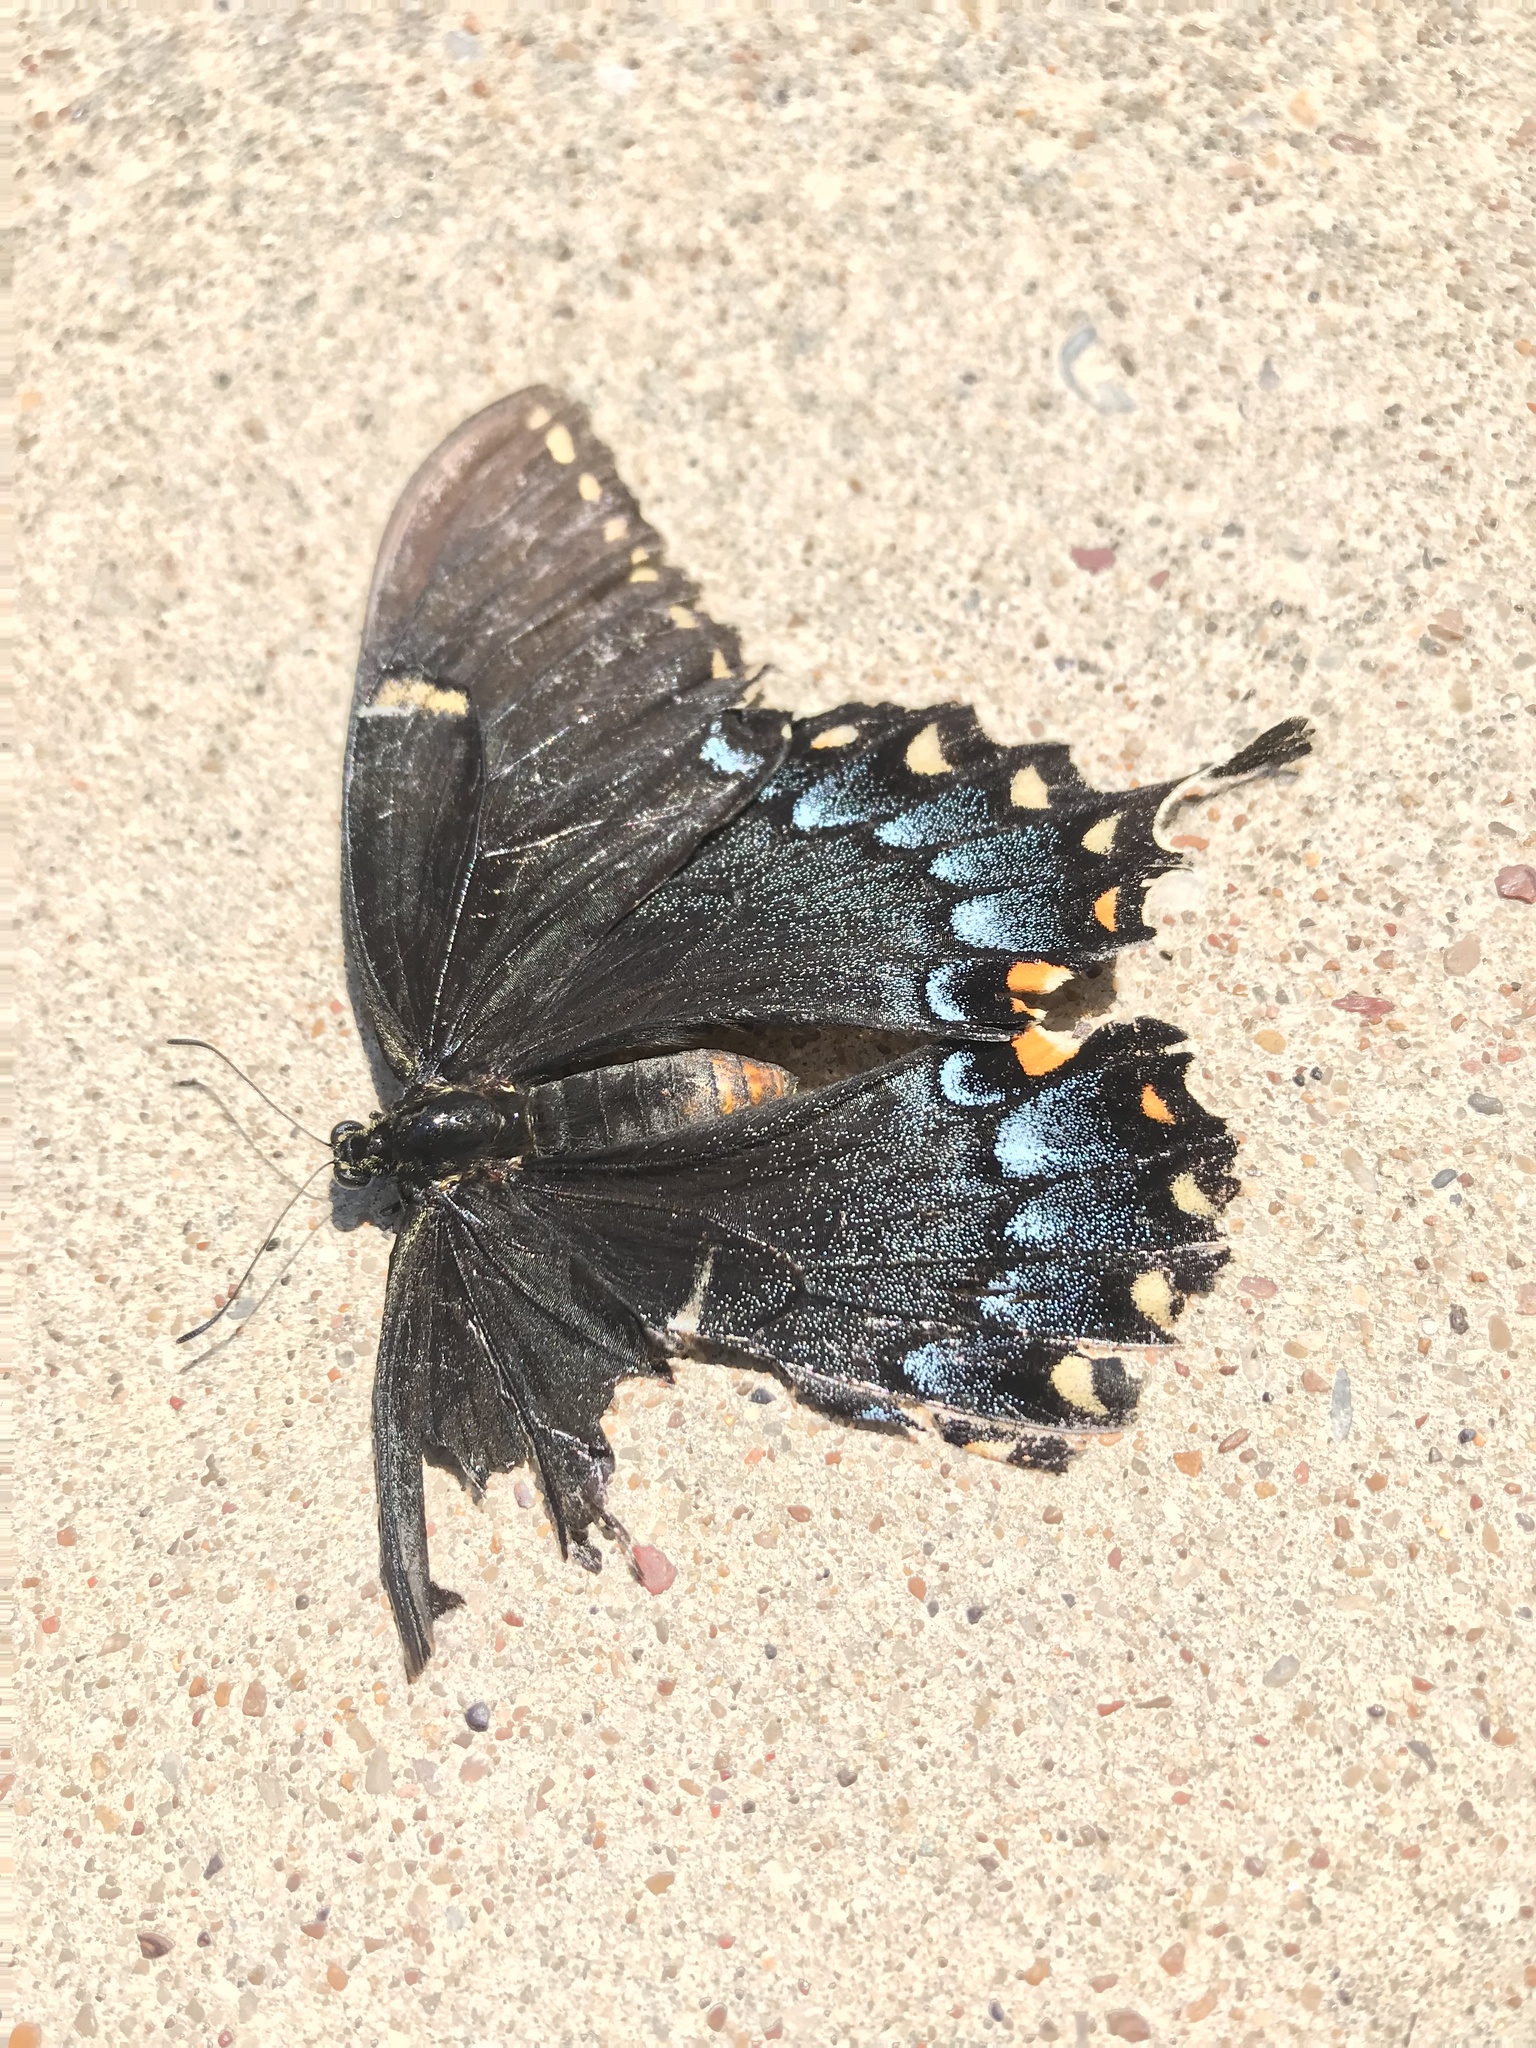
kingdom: Animalia
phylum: Arthropoda
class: Insecta
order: Lepidoptera
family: Papilionidae
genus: Papilio
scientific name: Papilio glaucus
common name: Tiger swallowtail
